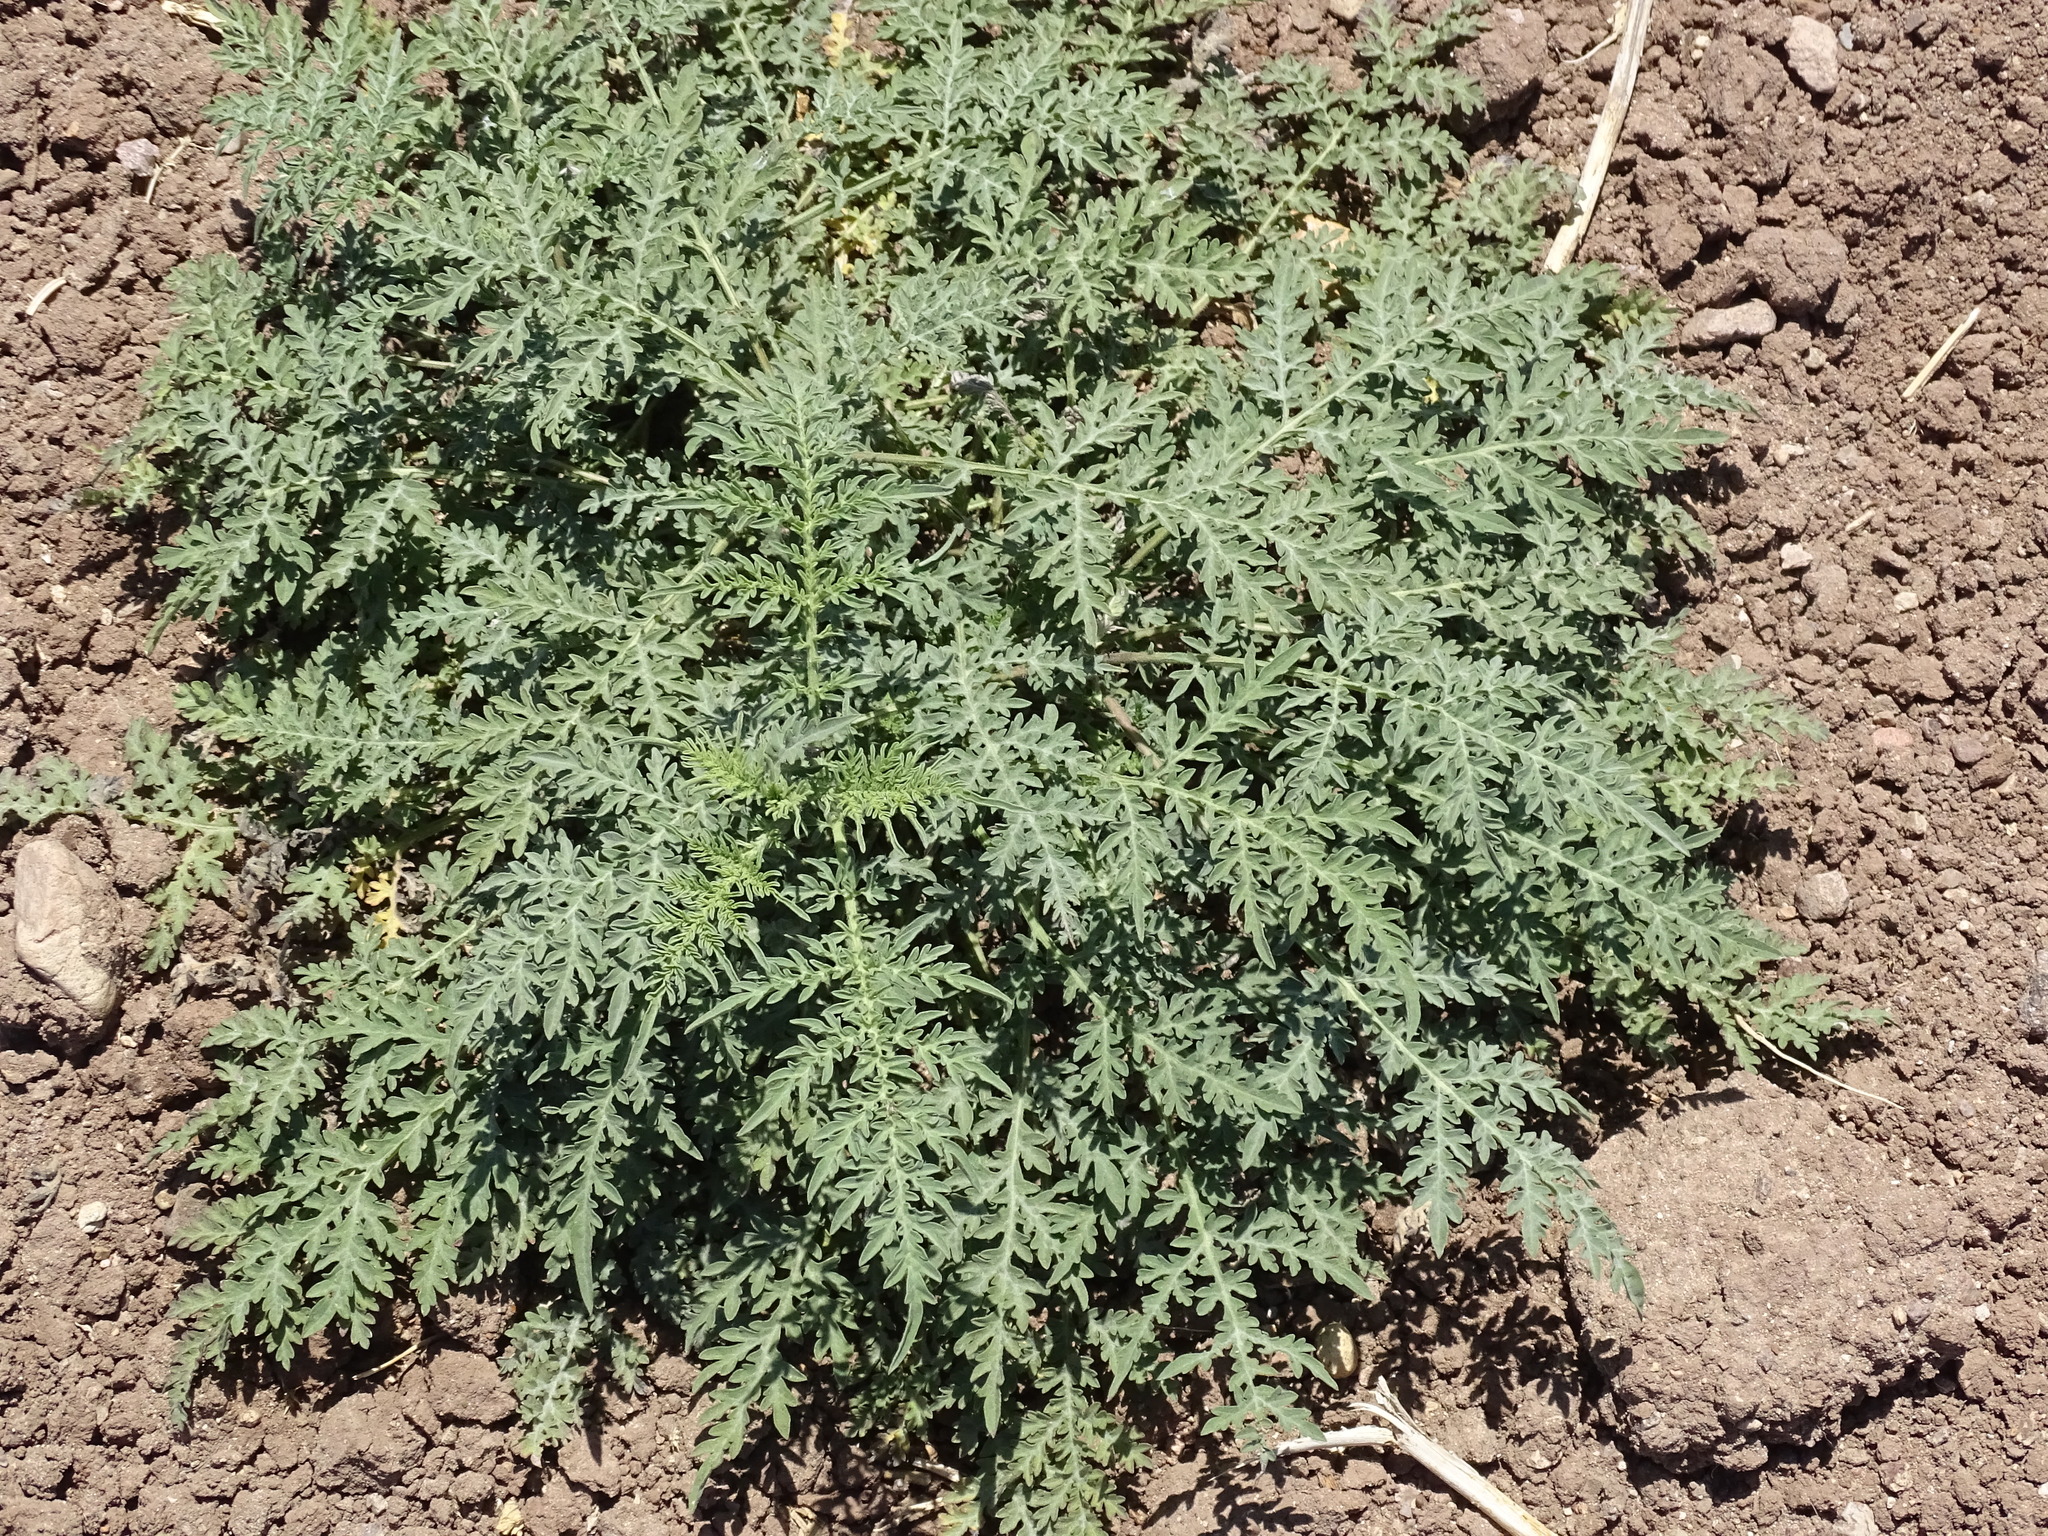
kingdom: Plantae
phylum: Tracheophyta
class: Magnoliopsida
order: Asterales
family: Asteraceae
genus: Ambrosia
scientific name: Ambrosia psilostachya
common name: Perennial ragweed
